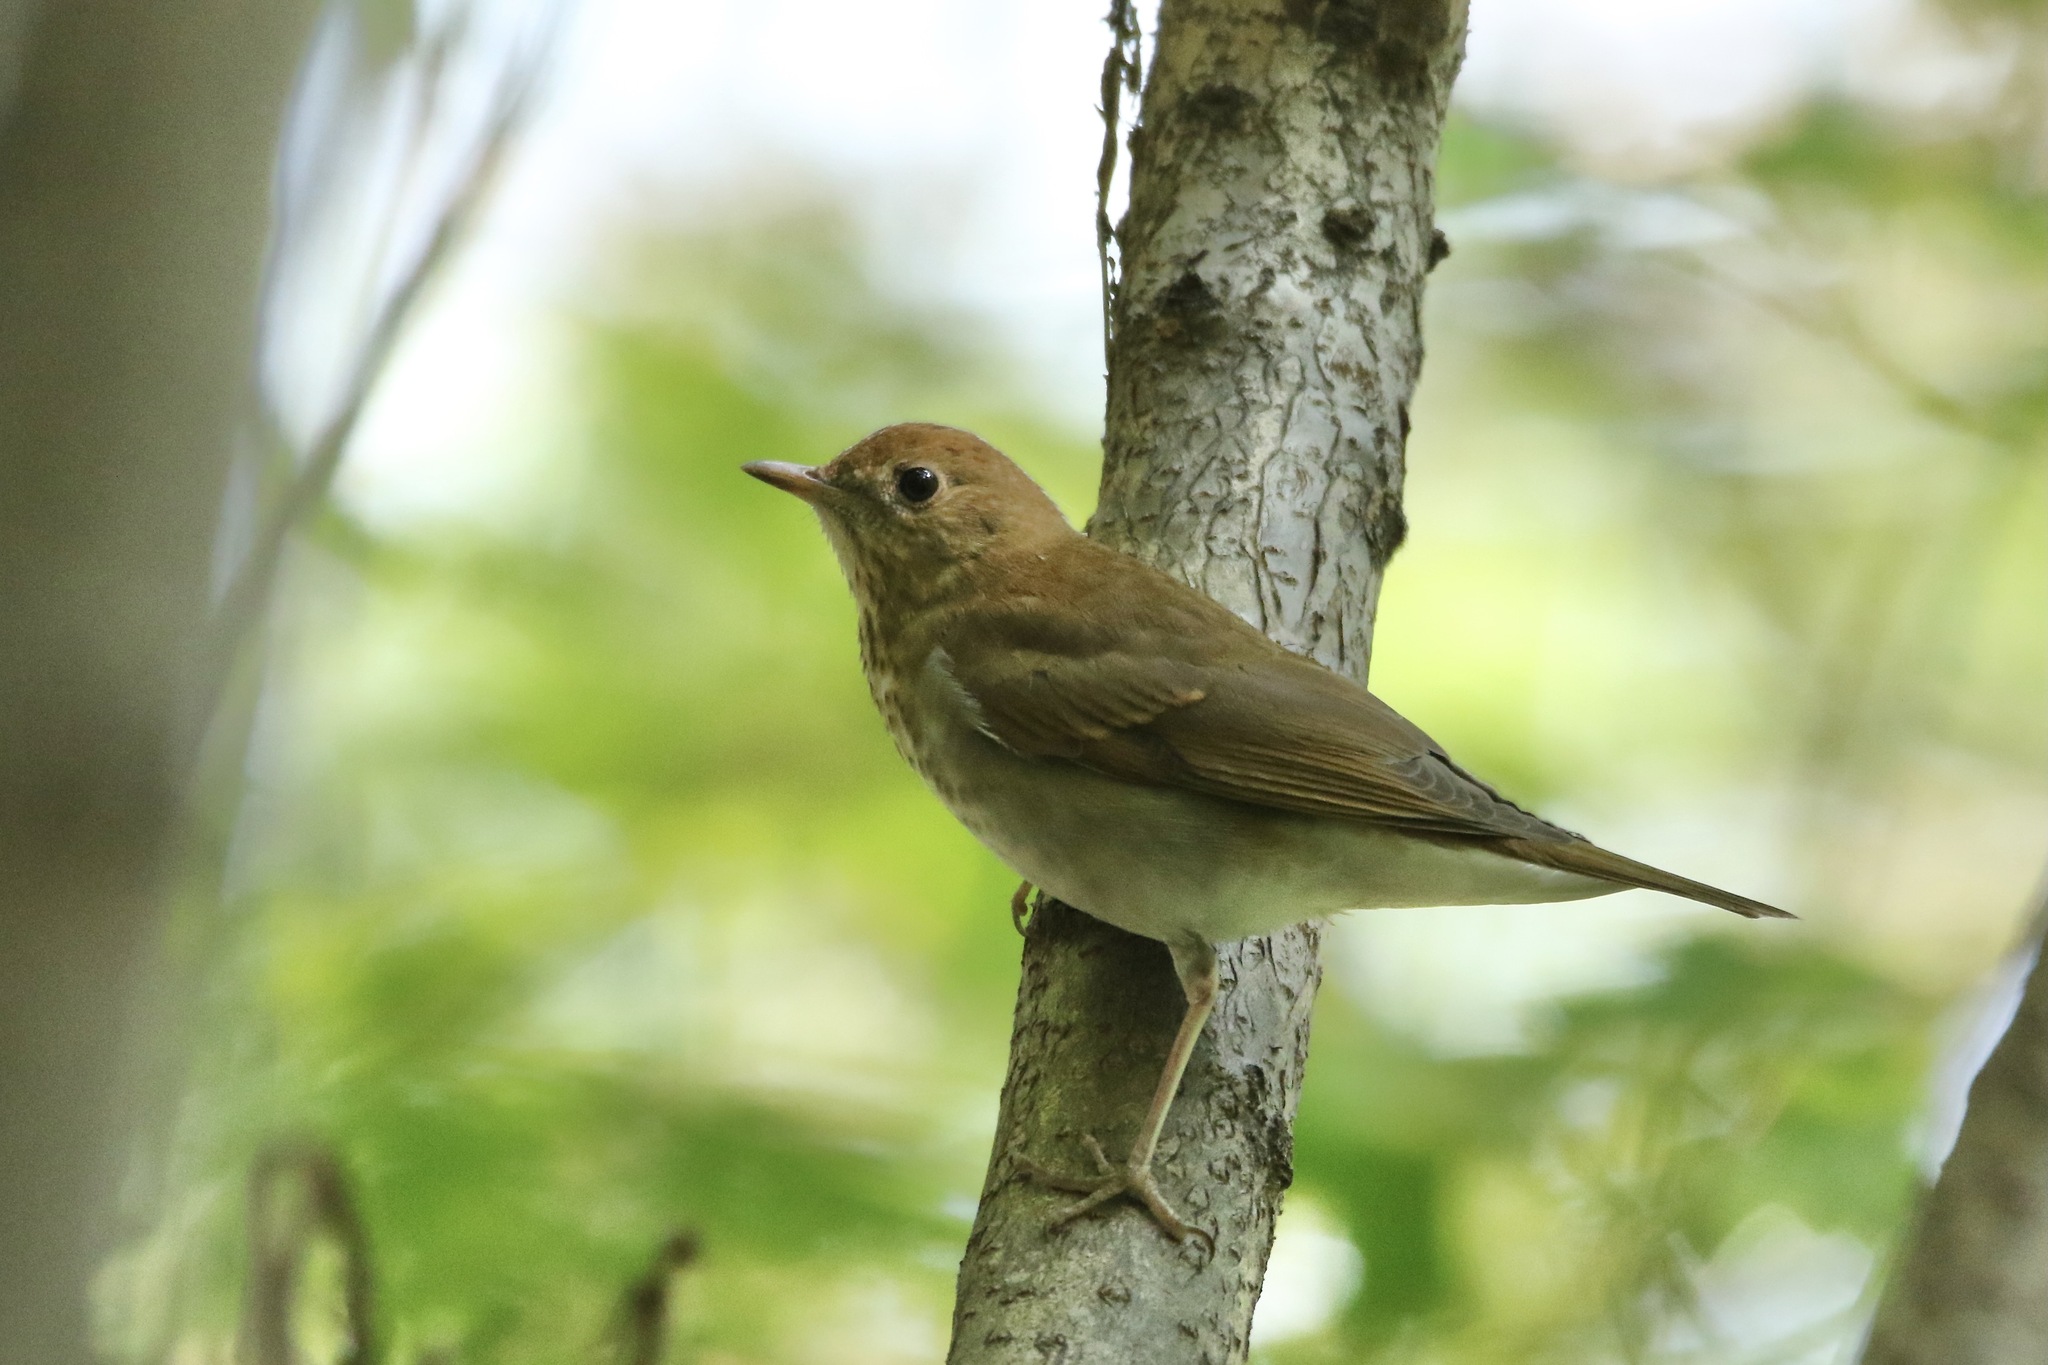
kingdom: Animalia
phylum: Chordata
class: Aves
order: Passeriformes
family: Turdidae
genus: Catharus
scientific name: Catharus fuscescens
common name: Veery
